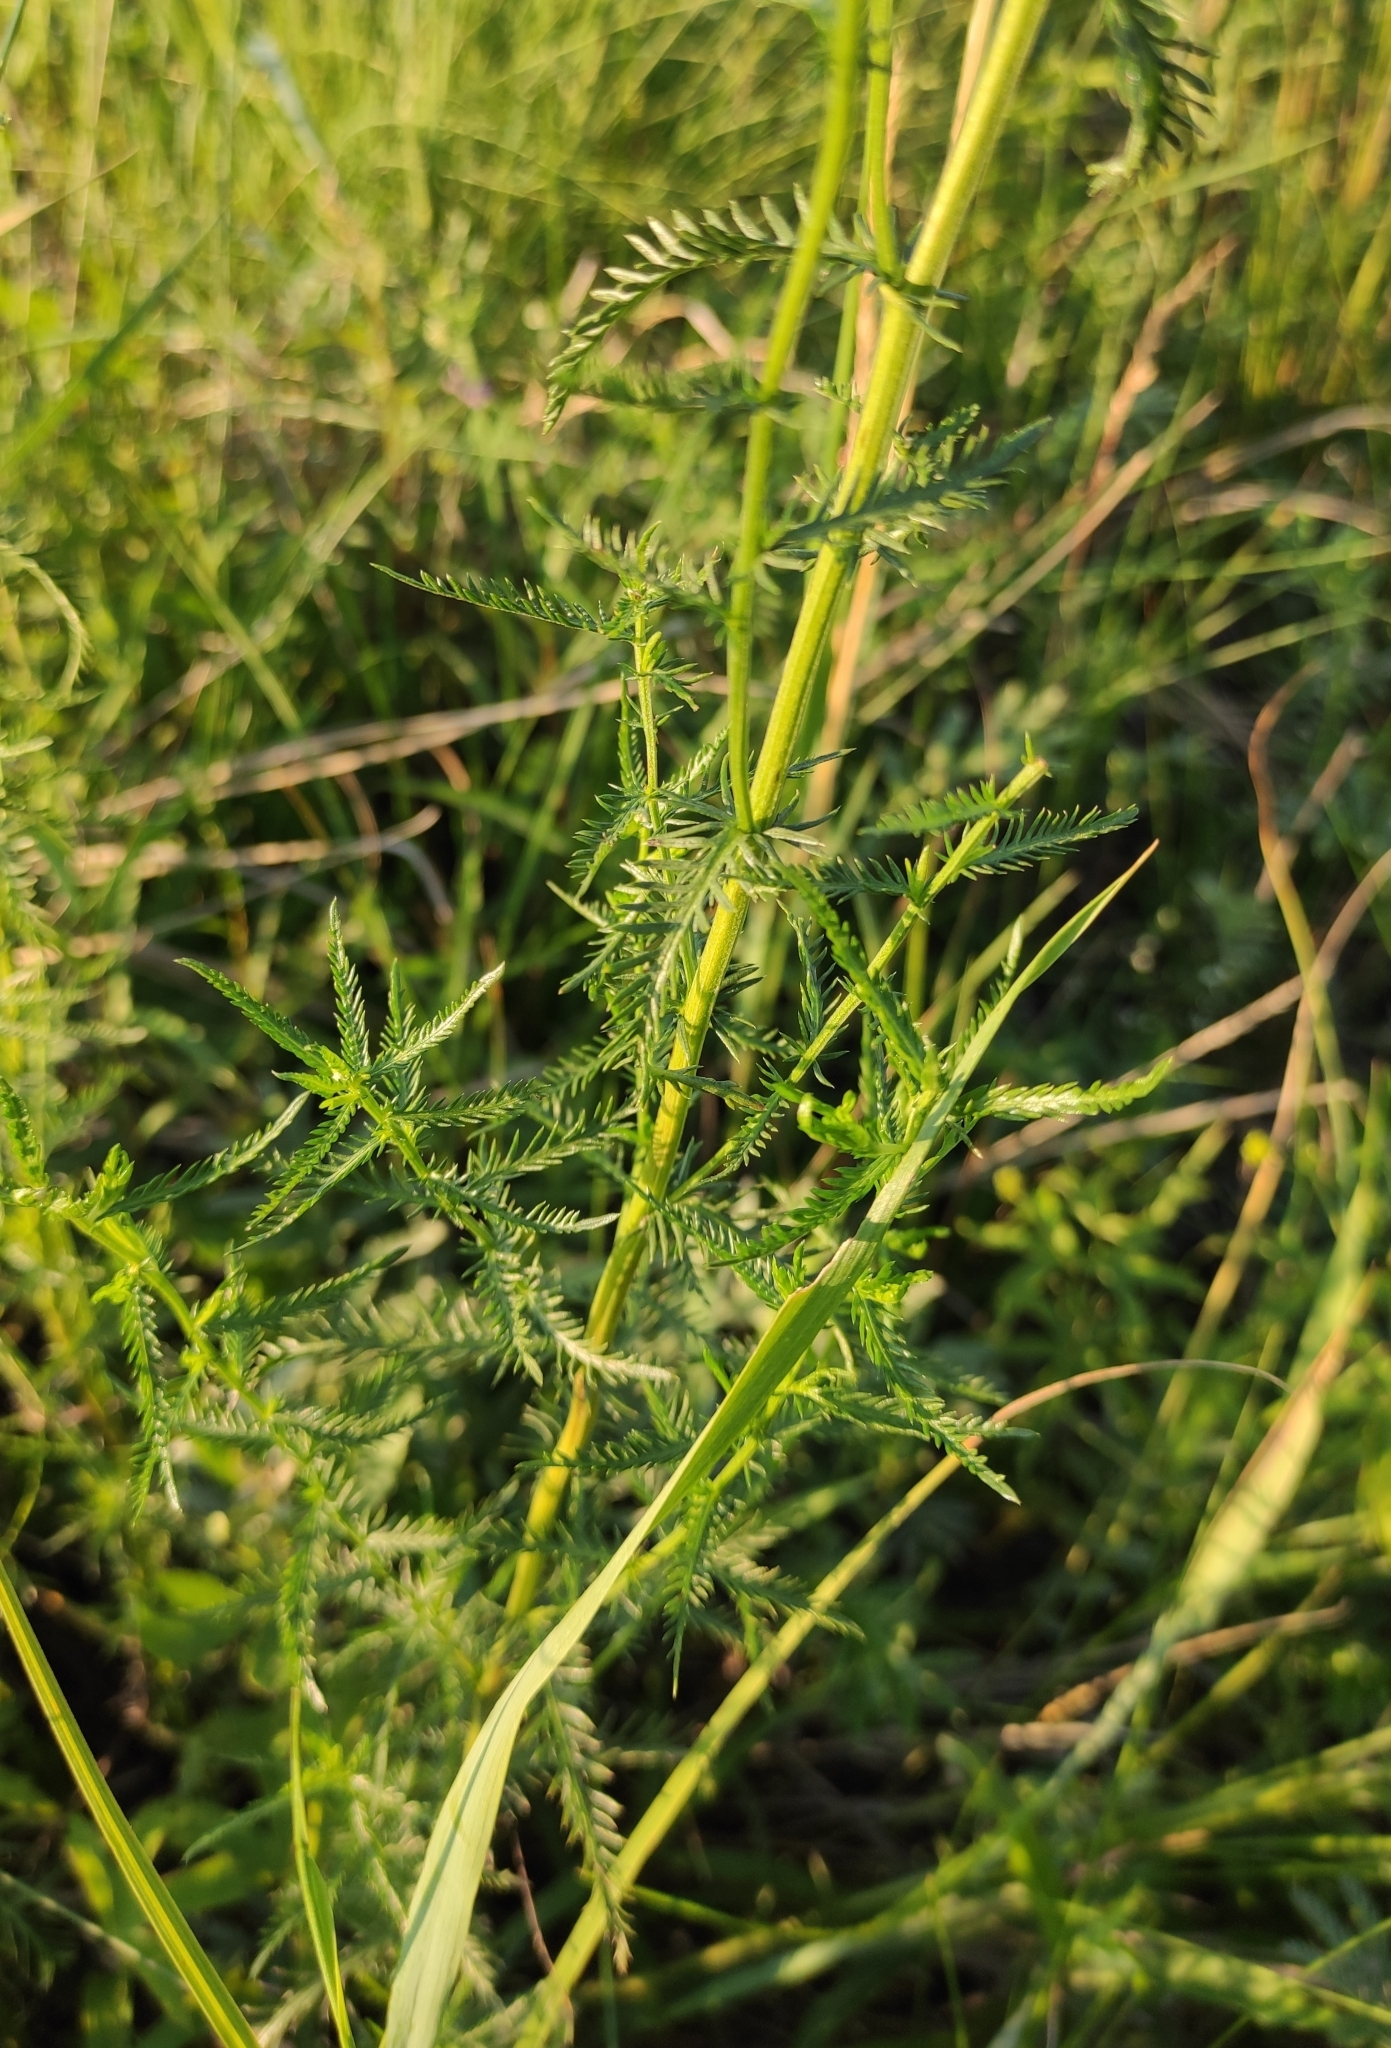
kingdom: Plantae
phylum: Tracheophyta
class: Magnoliopsida
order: Asterales
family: Asteraceae
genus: Achillea
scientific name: Achillea impatiens
